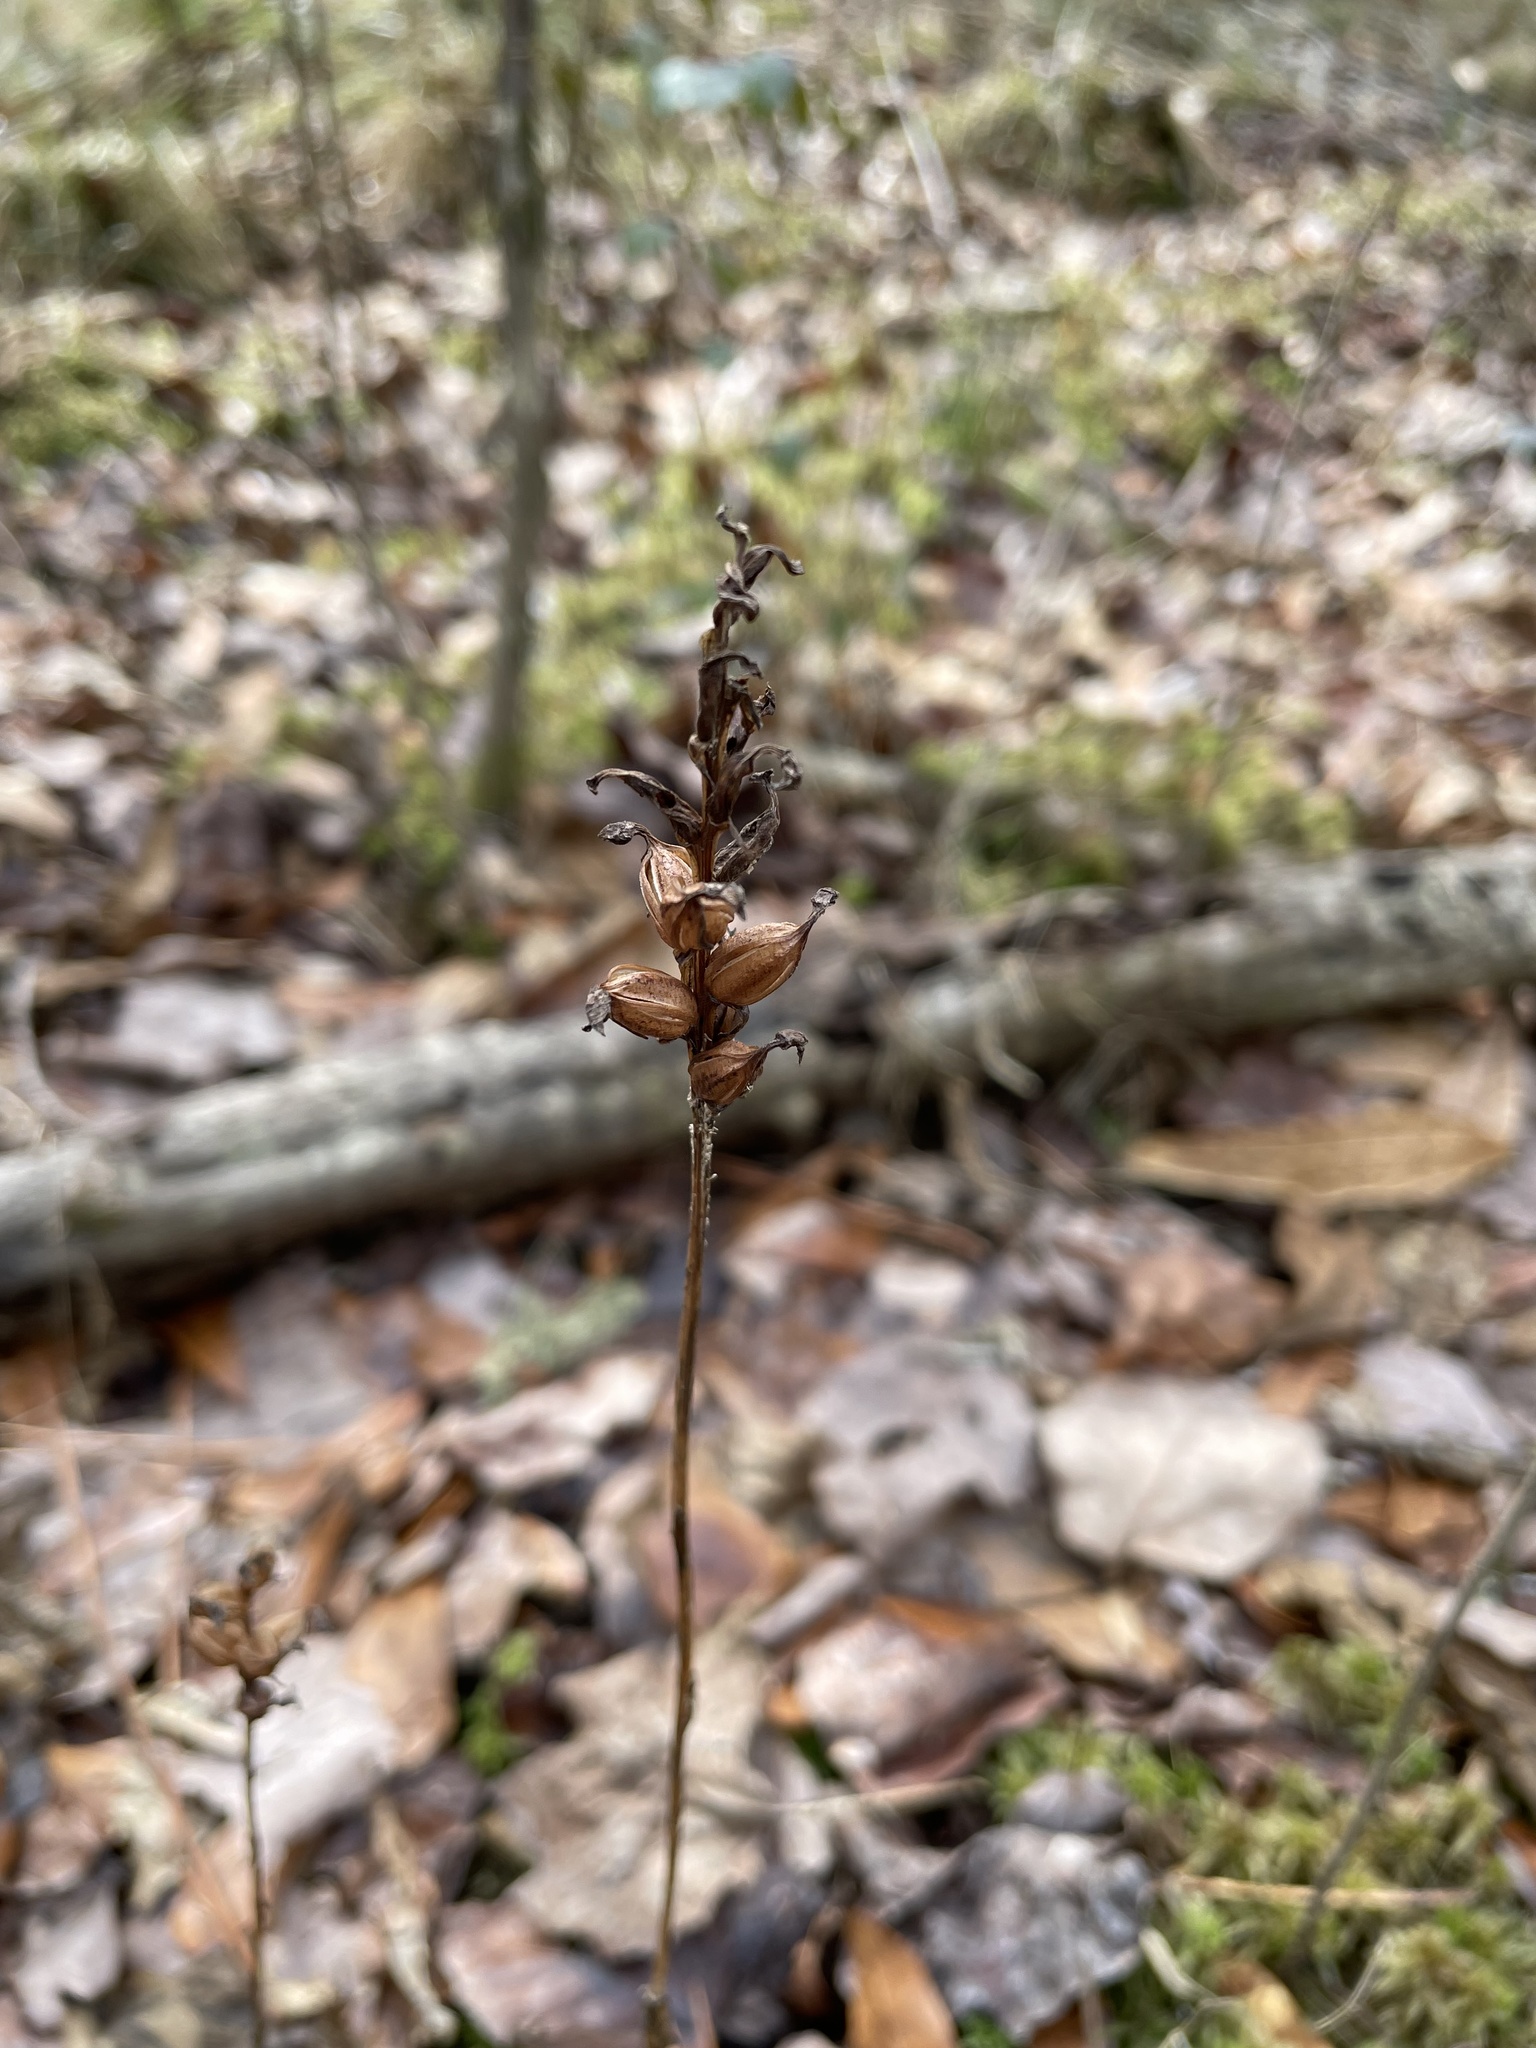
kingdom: Plantae
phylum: Tracheophyta
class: Liliopsida
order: Asparagales
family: Orchidaceae
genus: Platanthera
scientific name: Platanthera clavellata
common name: Club-spur orchid
